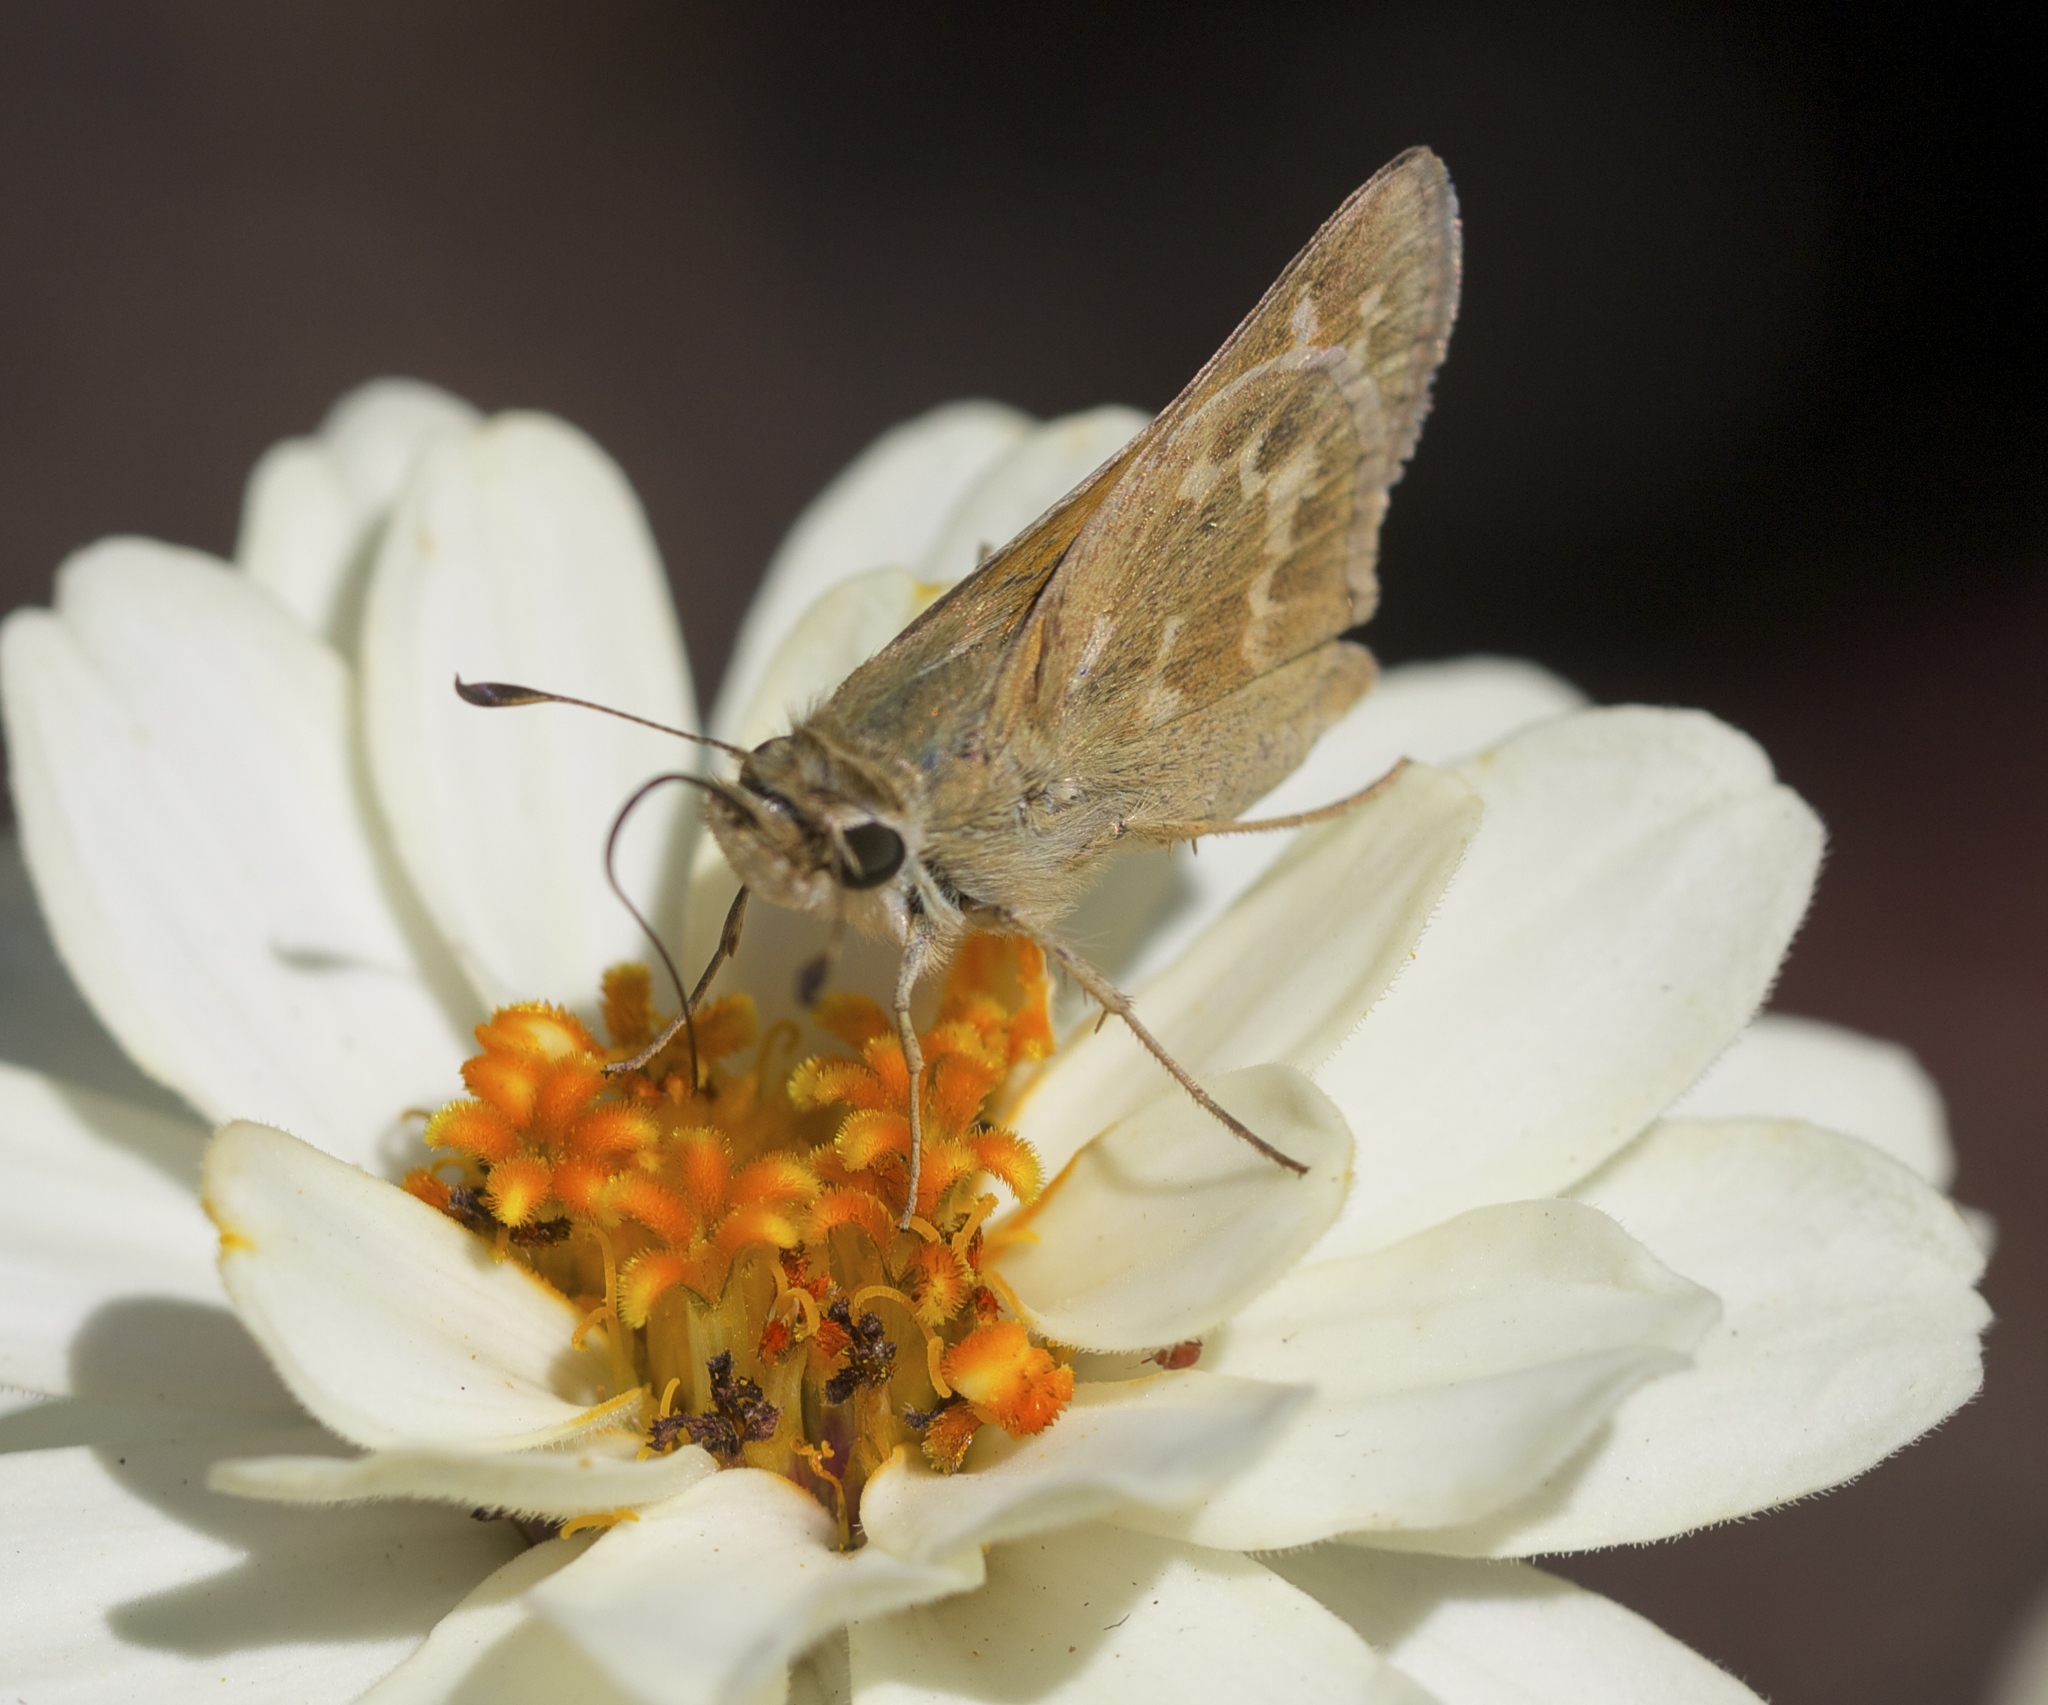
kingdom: Animalia
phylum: Arthropoda
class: Insecta
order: Lepidoptera
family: Hesperiidae
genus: Atalopedes
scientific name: Atalopedes campestris
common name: Sachem
